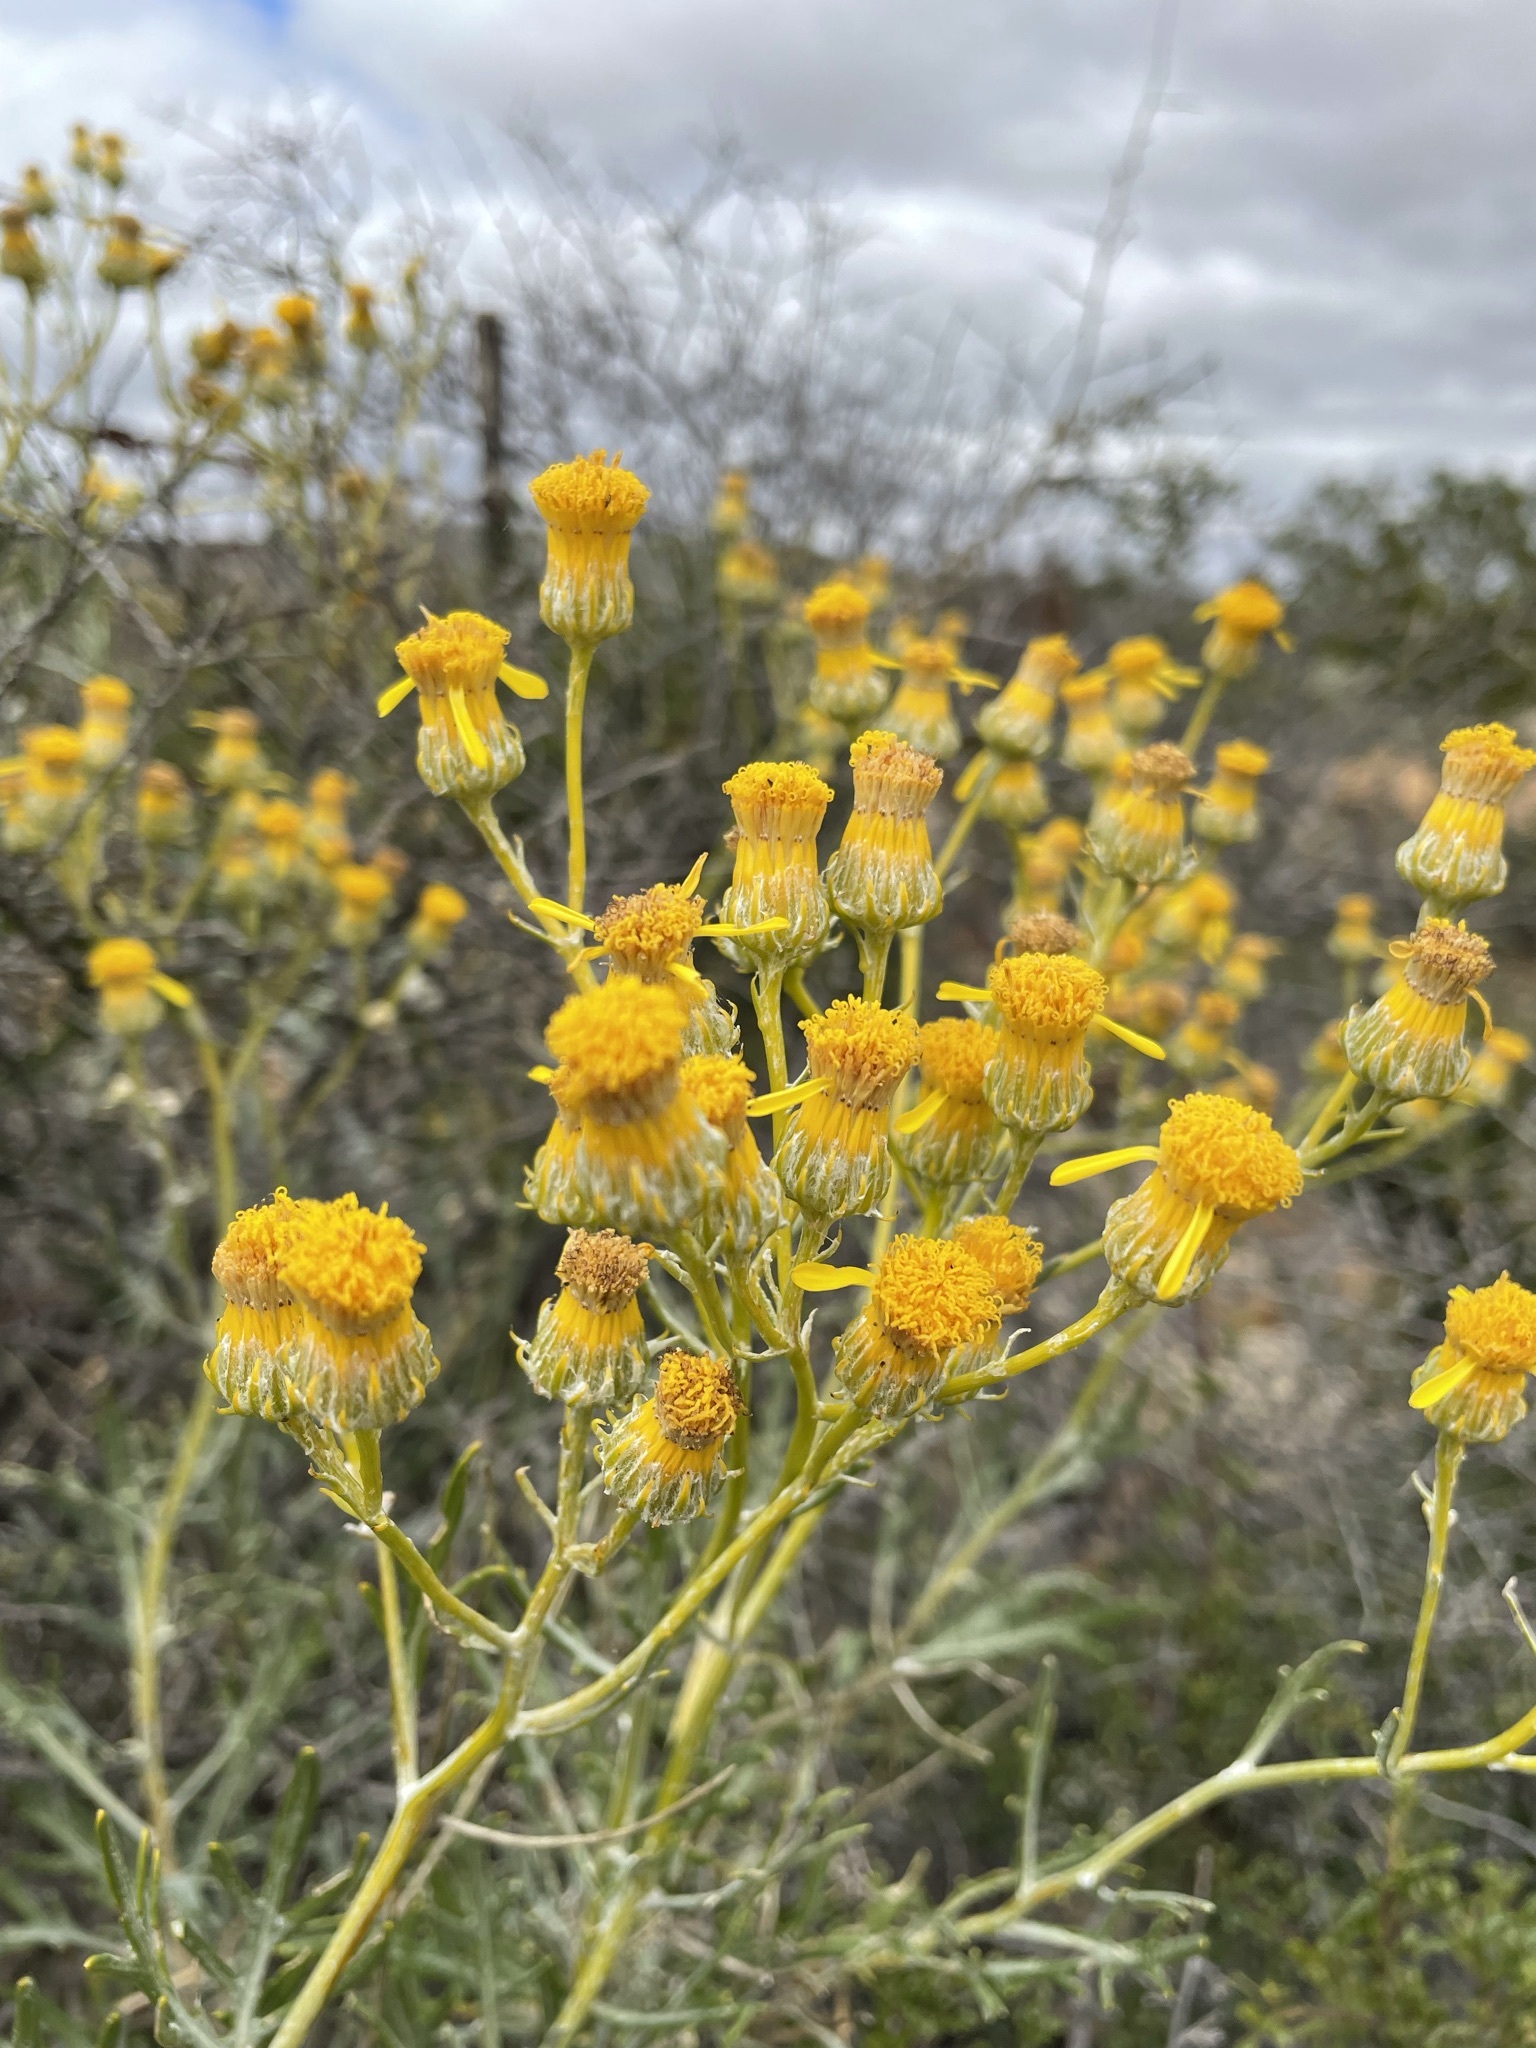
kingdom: Plantae
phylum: Tracheophyta
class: Magnoliopsida
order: Asterales
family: Asteraceae
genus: Senecio
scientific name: Senecio cinerascens
